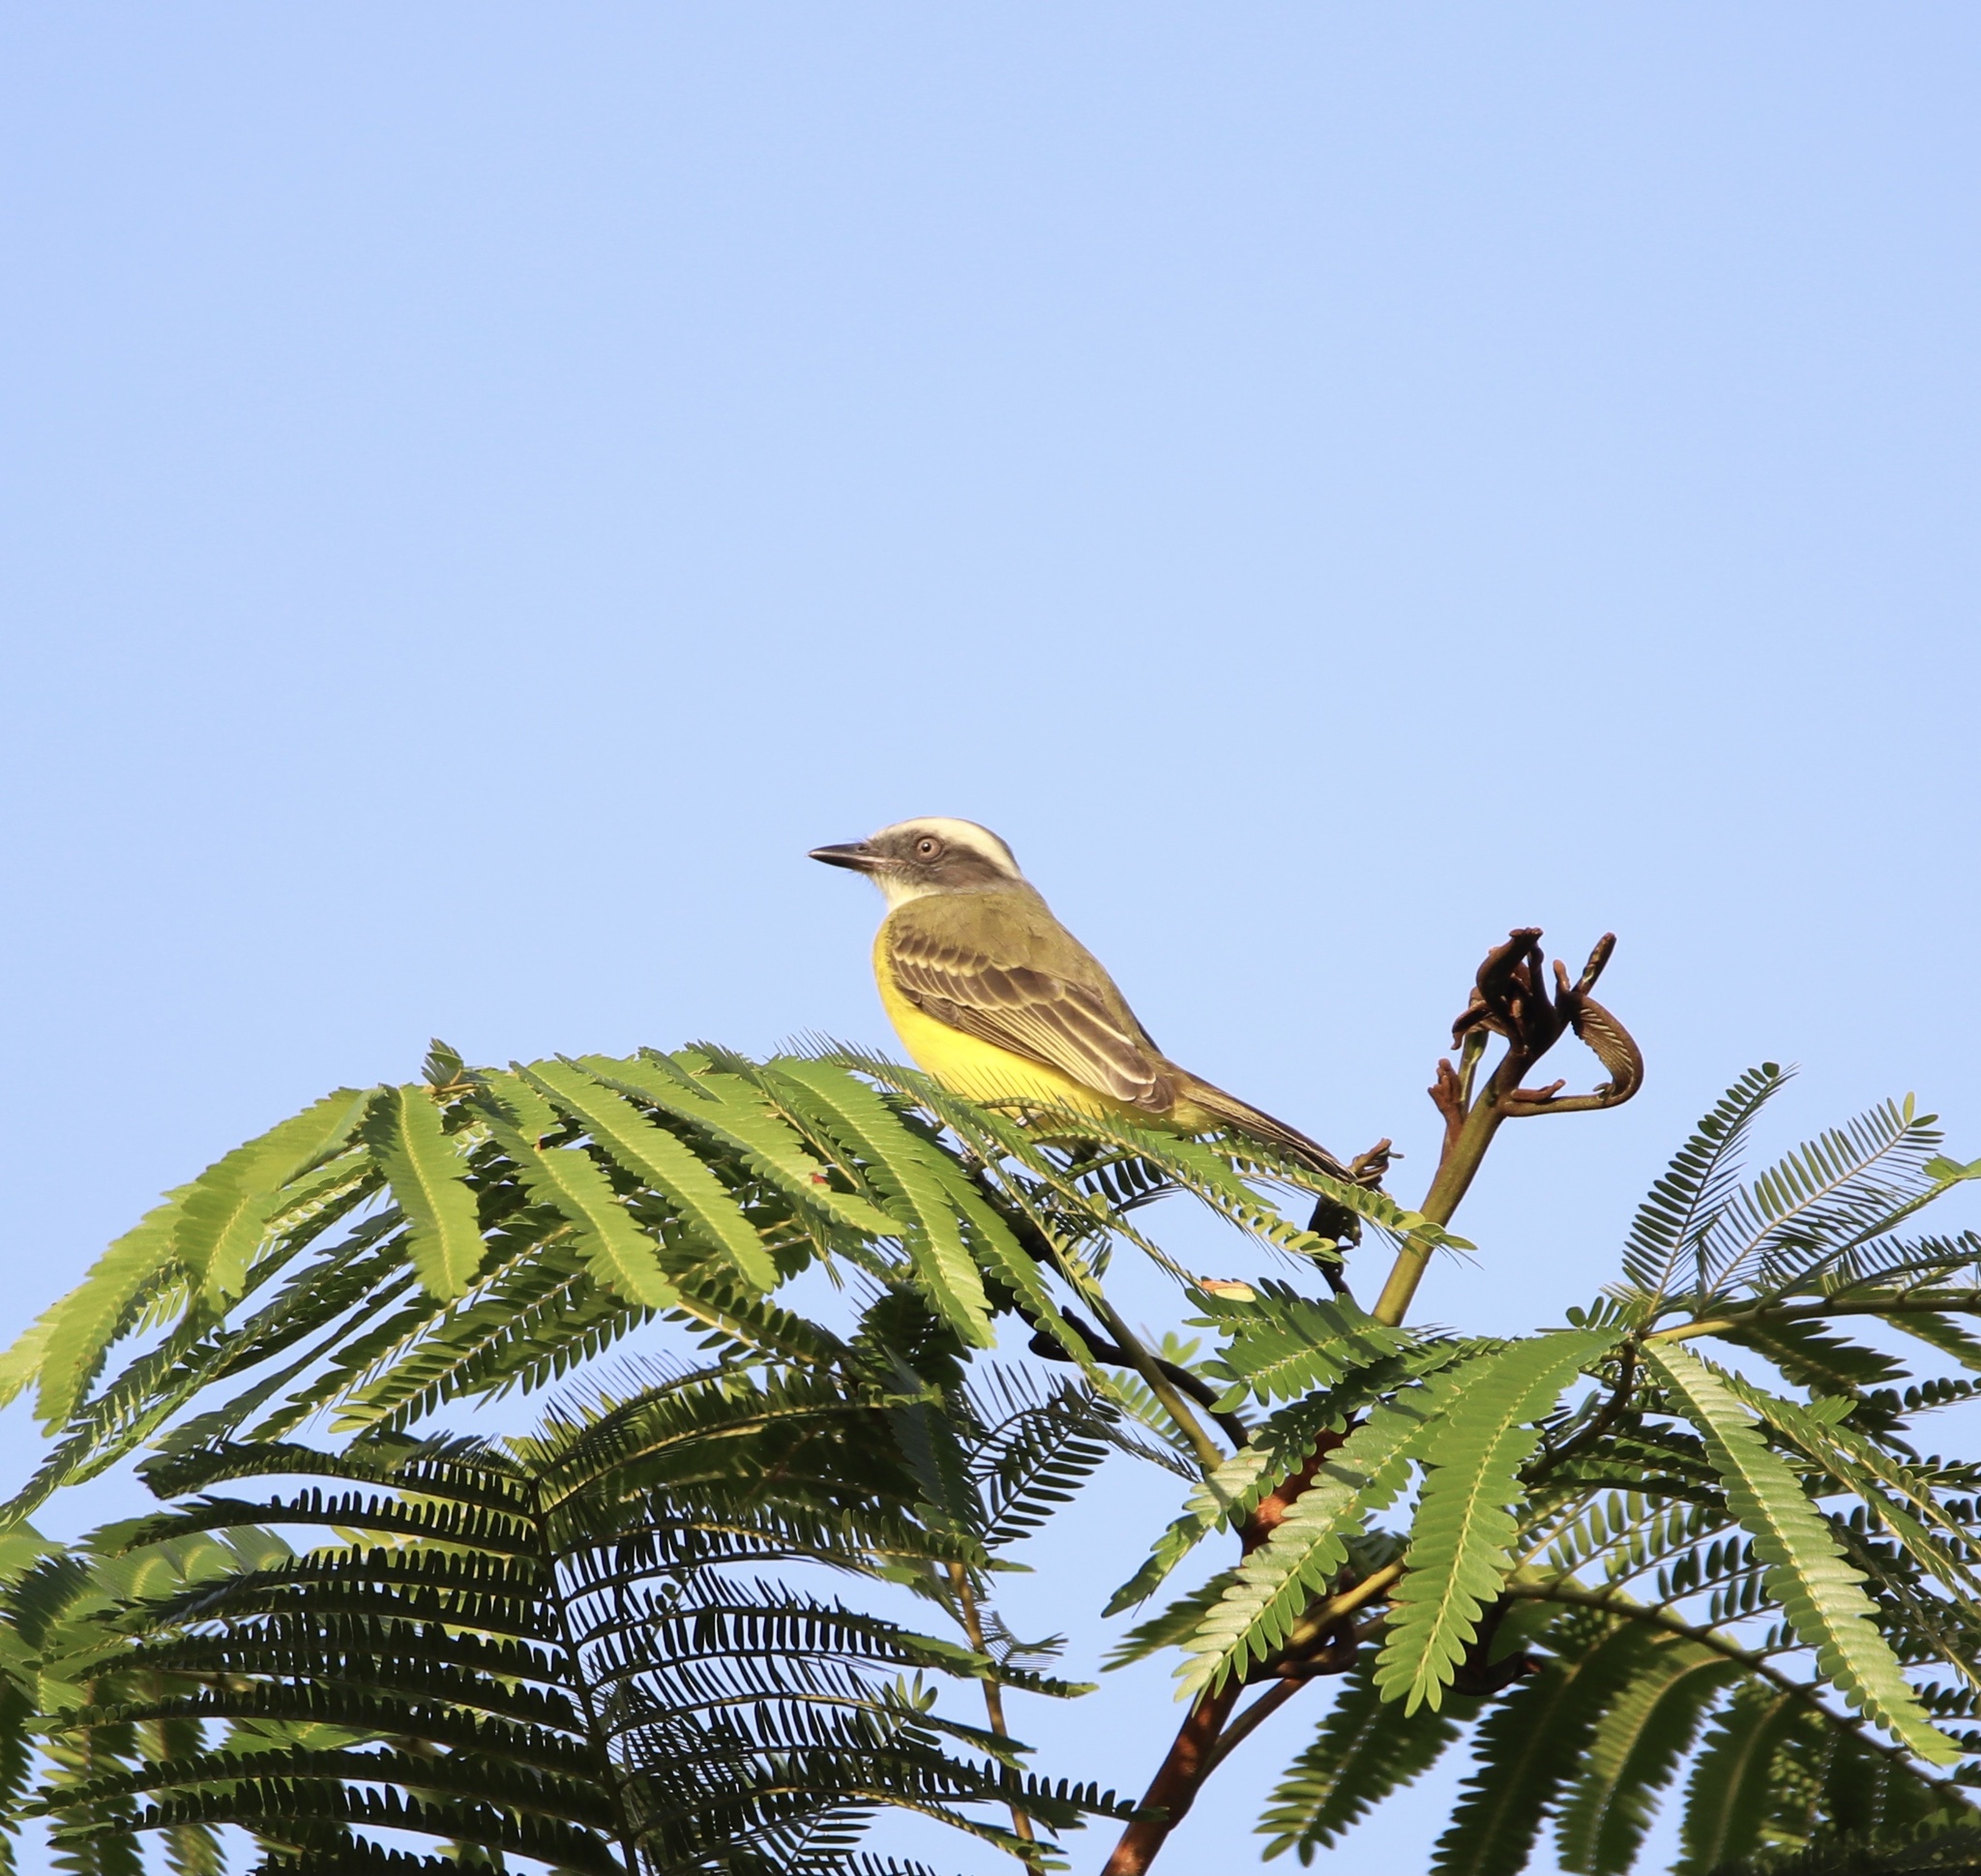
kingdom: Animalia
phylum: Chordata
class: Aves
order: Passeriformes
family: Tyrannidae
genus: Myiozetetes
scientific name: Myiozetetes similis
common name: Social flycatcher
